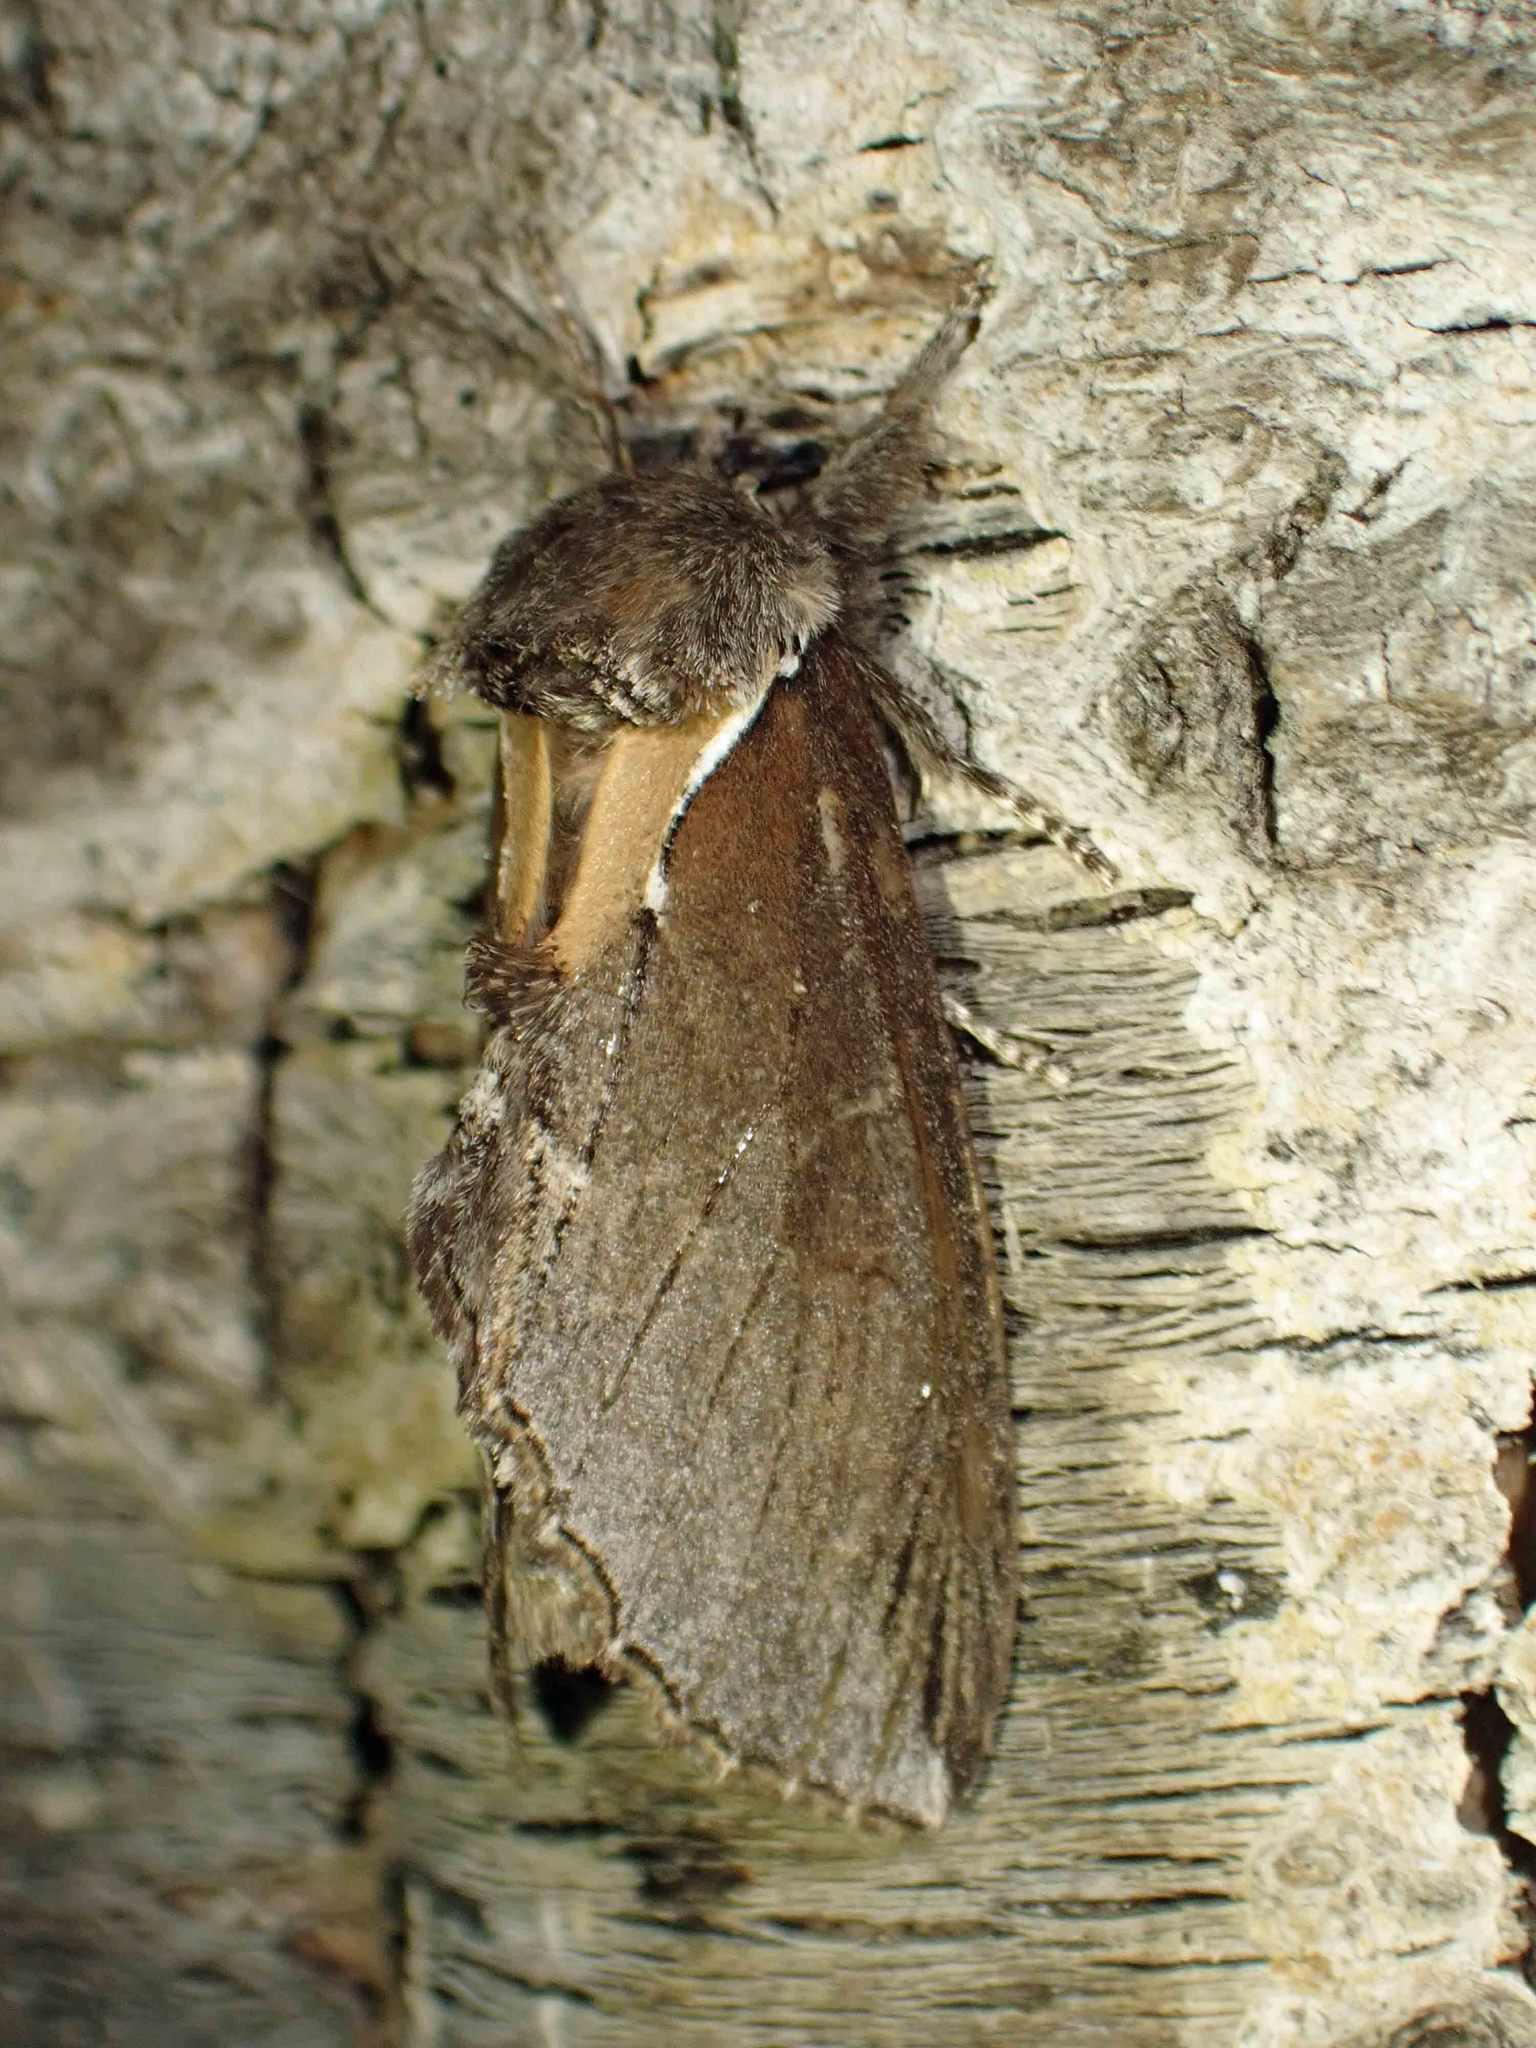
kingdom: Animalia
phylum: Arthropoda
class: Insecta
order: Lepidoptera
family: Notodontidae
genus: Pheosidea
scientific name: Pheosidea elegans
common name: Elegant prominent
